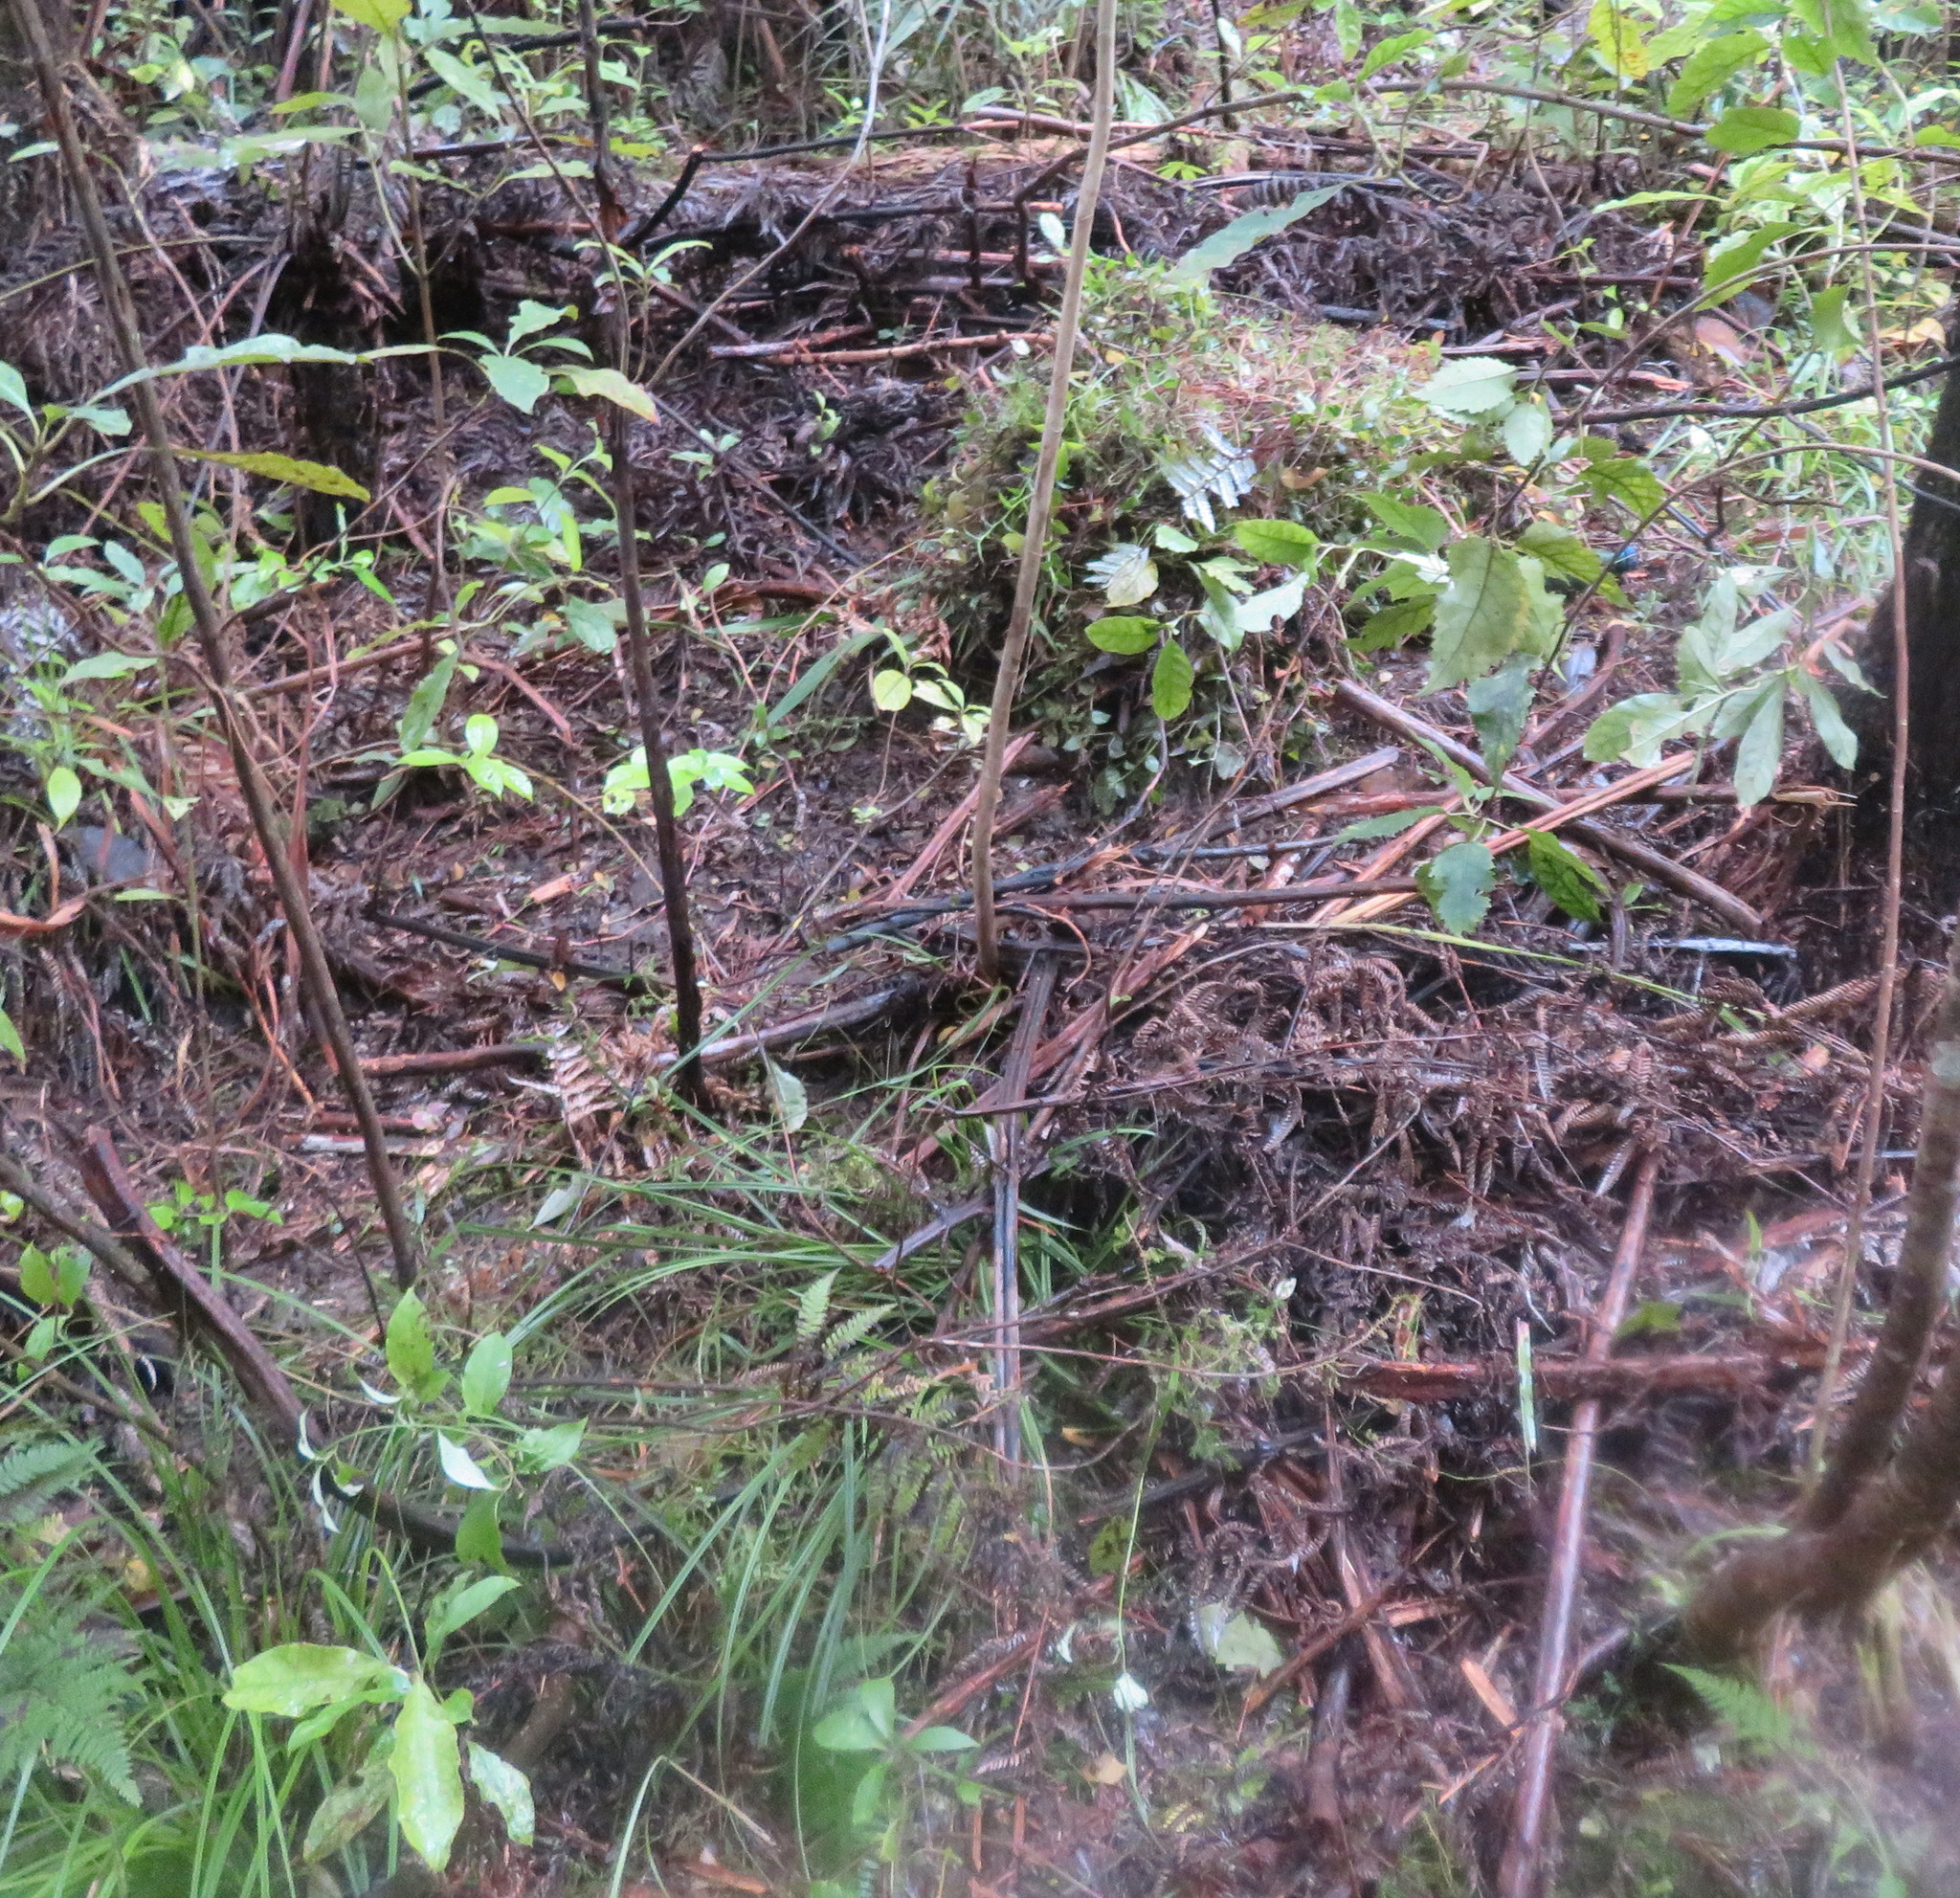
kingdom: Plantae
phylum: Tracheophyta
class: Liliopsida
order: Commelinales
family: Commelinaceae
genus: Tradescantia
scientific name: Tradescantia fluminensis
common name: Wandering-jew
